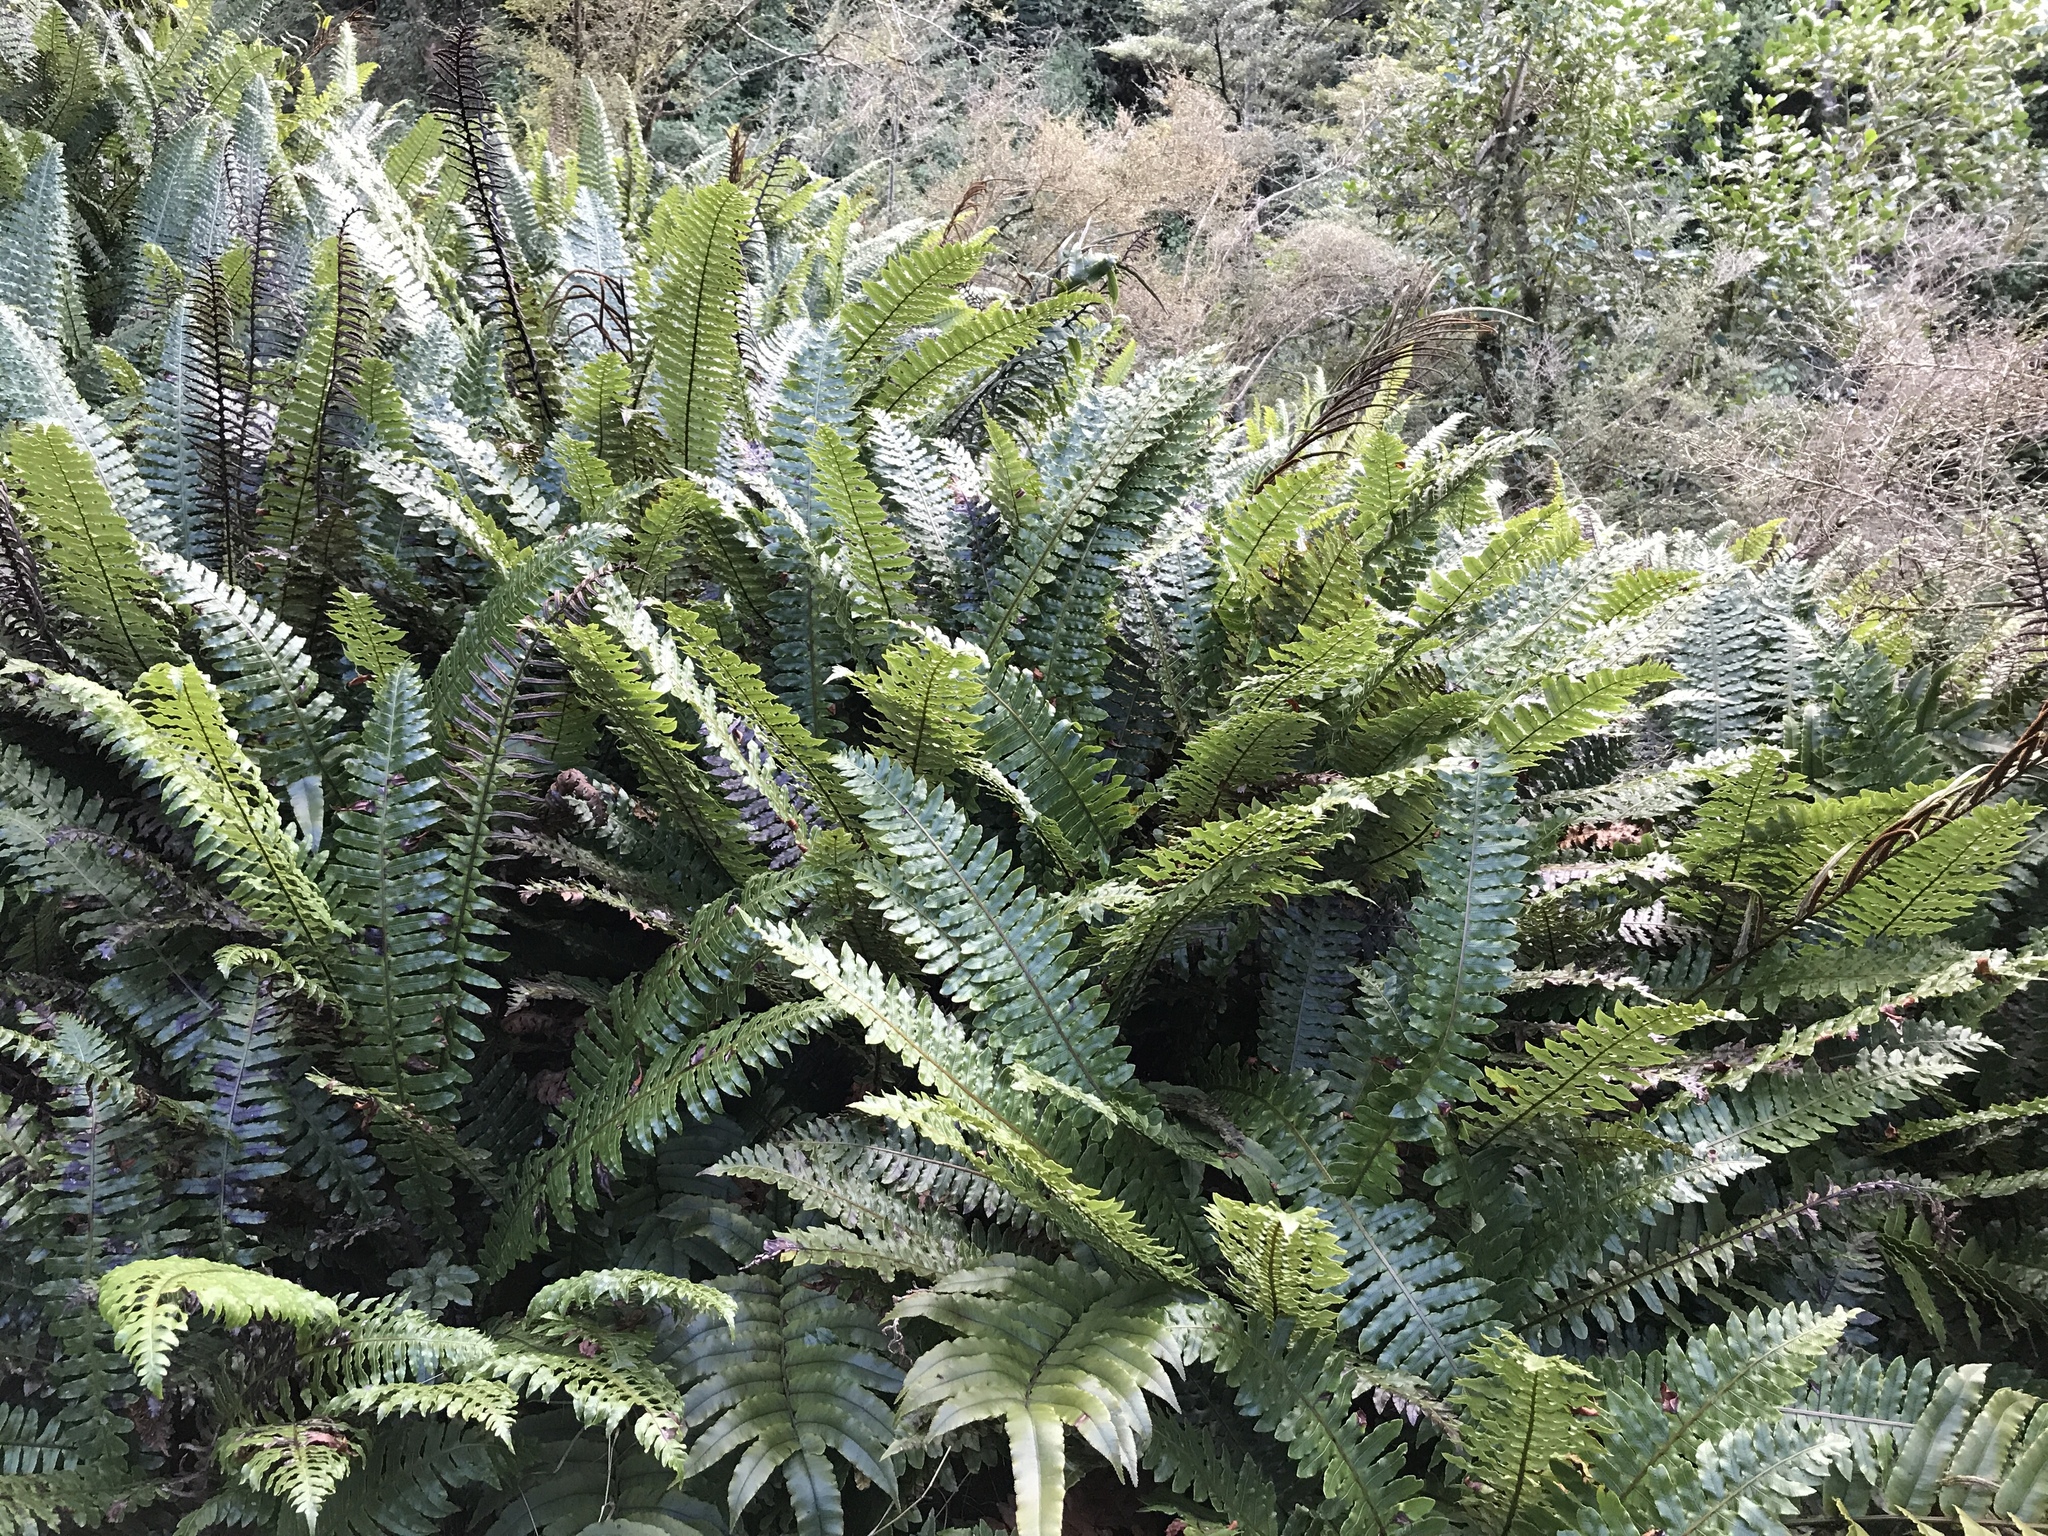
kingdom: Plantae
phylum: Tracheophyta
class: Polypodiopsida
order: Polypodiales
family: Blechnaceae
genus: Lomaria
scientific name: Lomaria discolor
